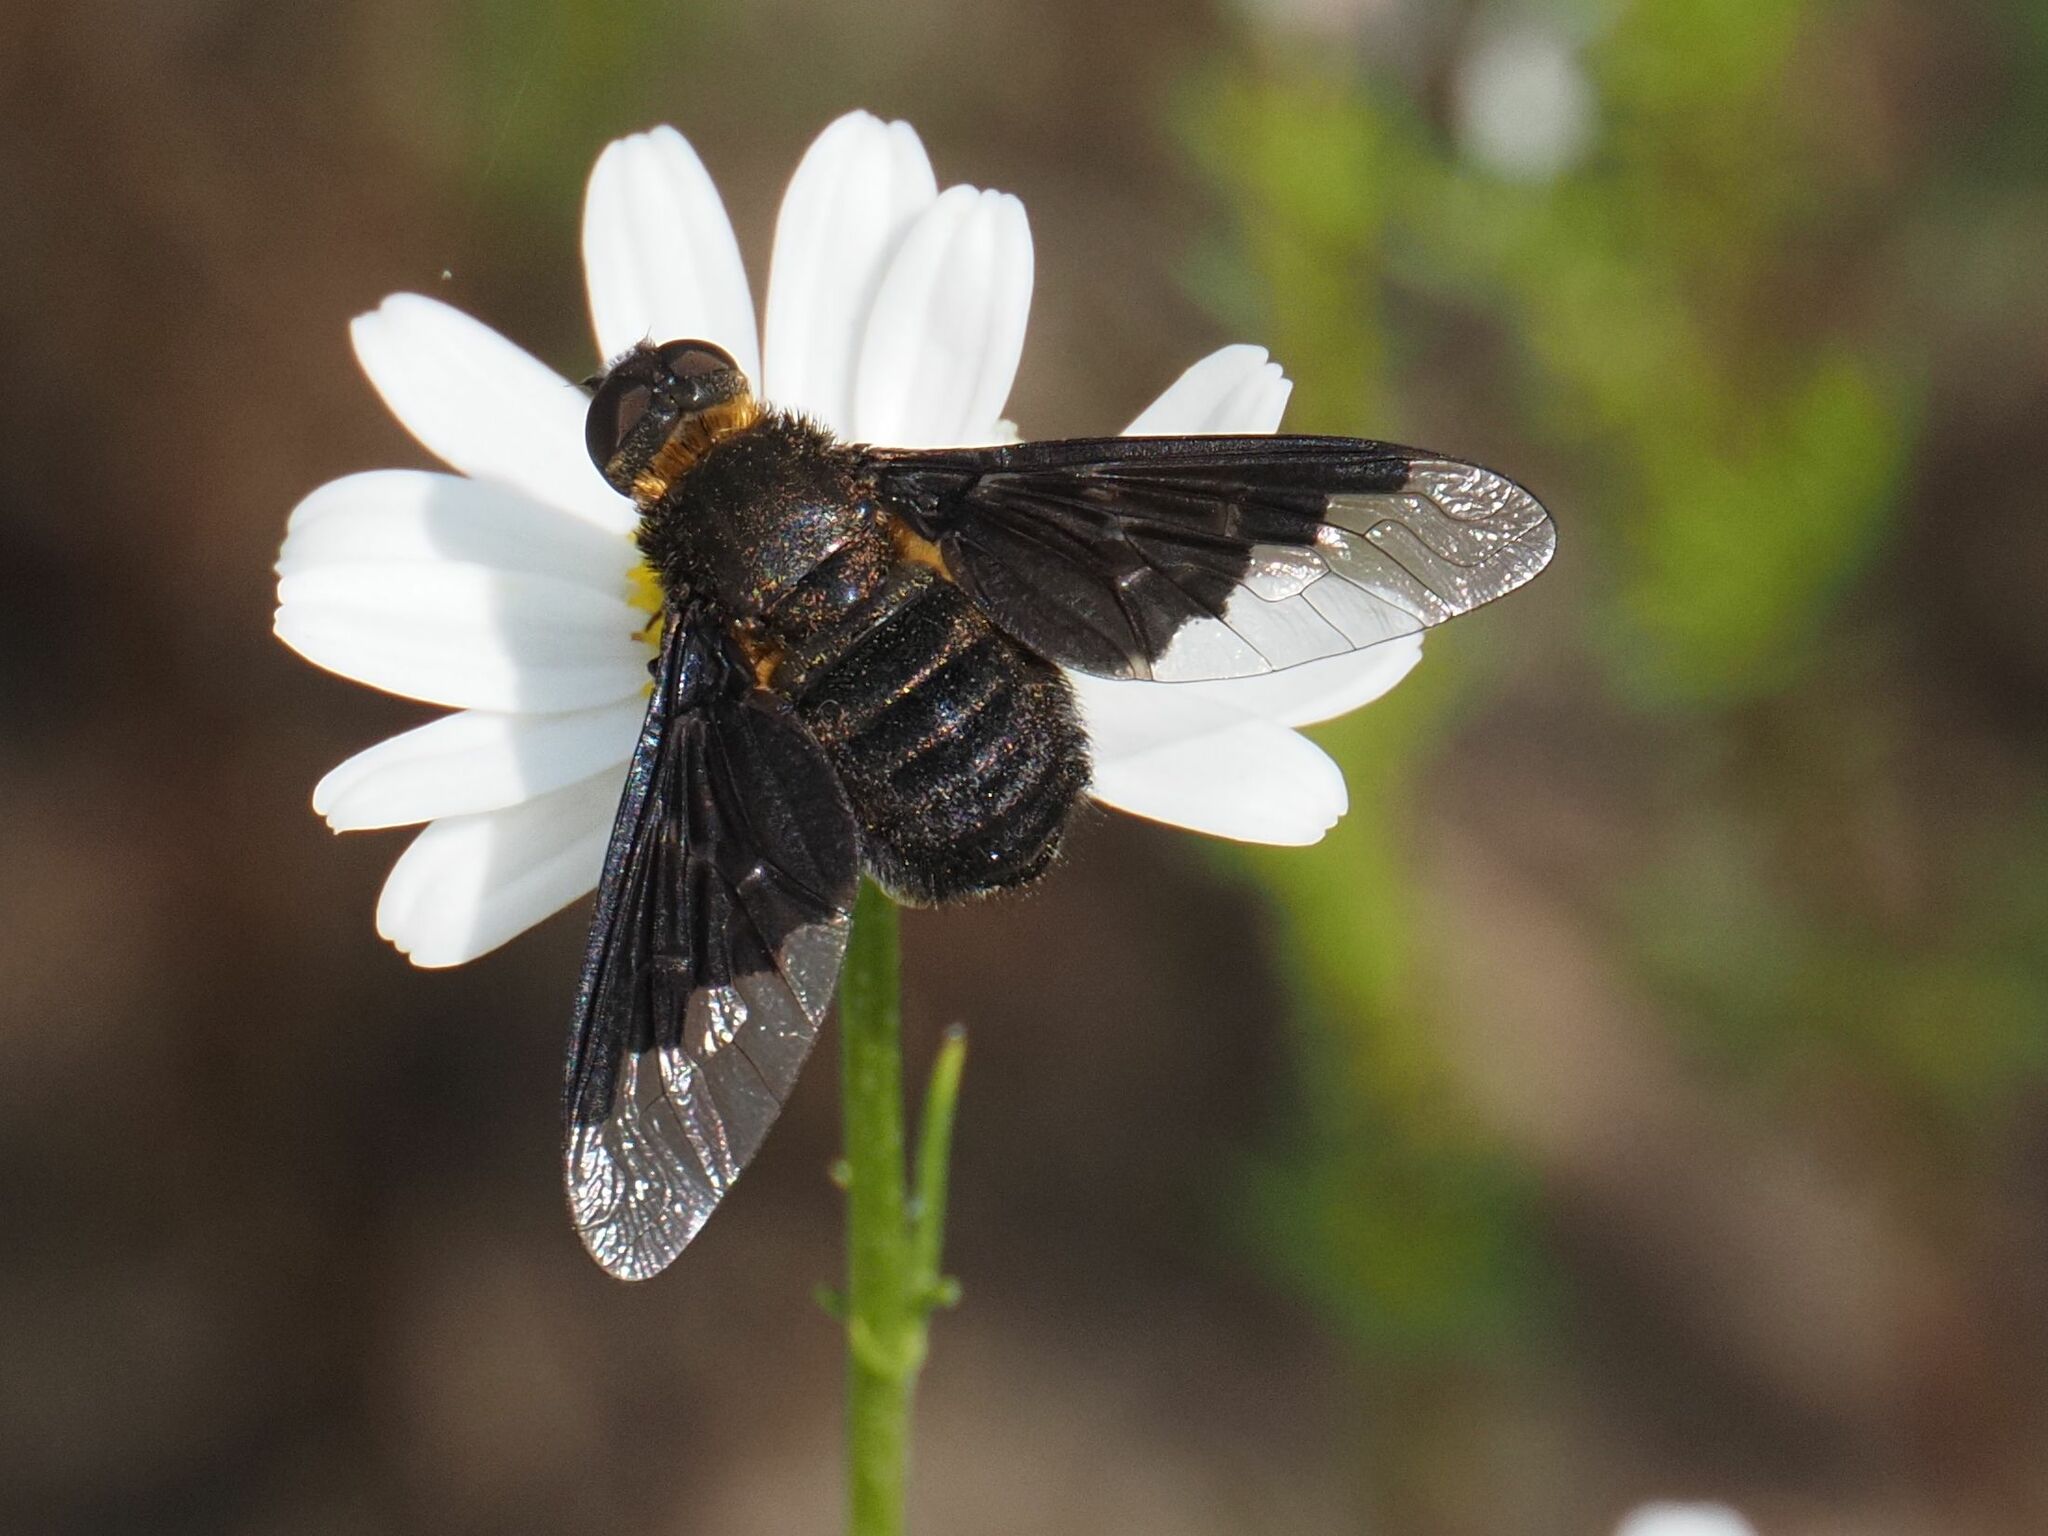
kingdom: Animalia
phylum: Arthropoda
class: Insecta
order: Diptera
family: Bombyliidae
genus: Hemipenthes
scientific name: Hemipenthes morio
